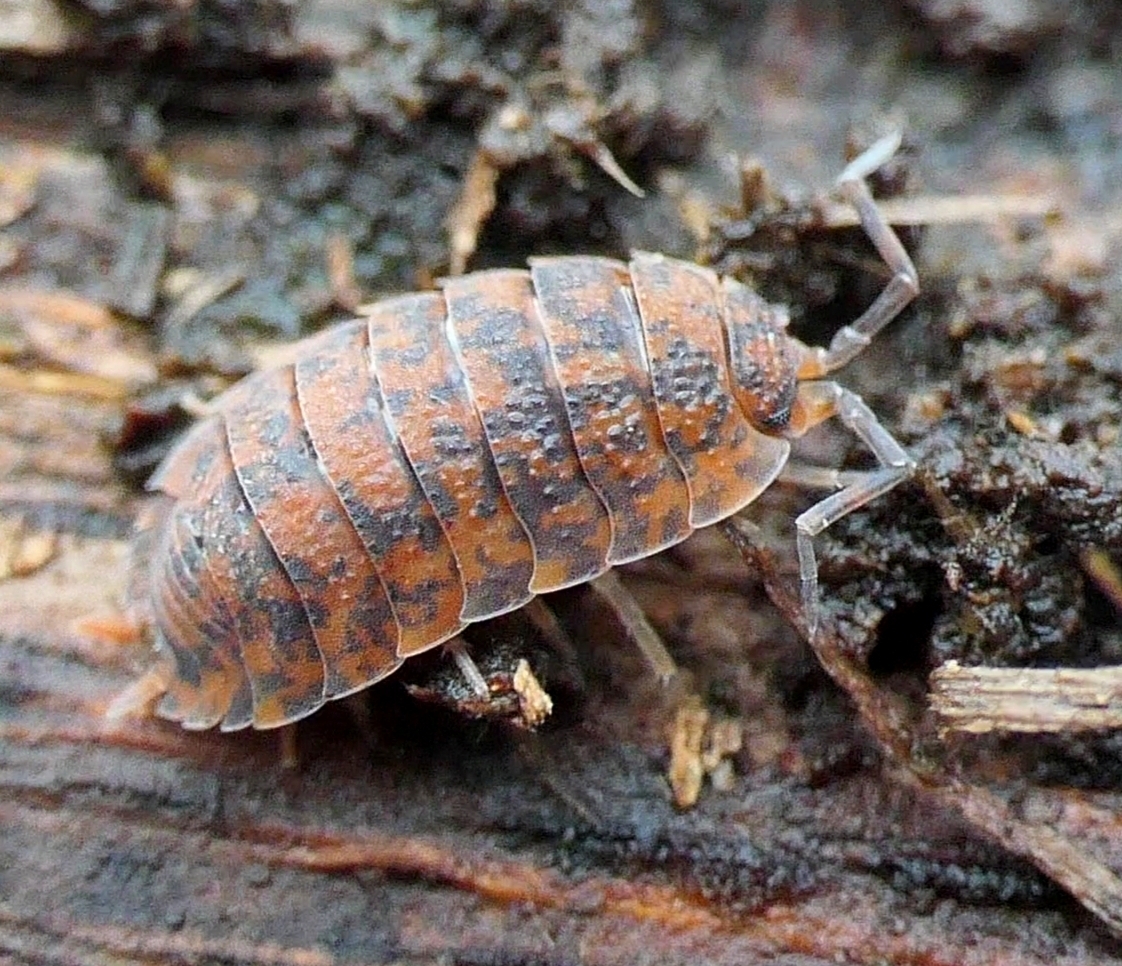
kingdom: Animalia
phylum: Arthropoda
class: Malacostraca
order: Isopoda
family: Porcellionidae
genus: Porcellio
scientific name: Porcellio scaber
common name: Common rough woodlouse
